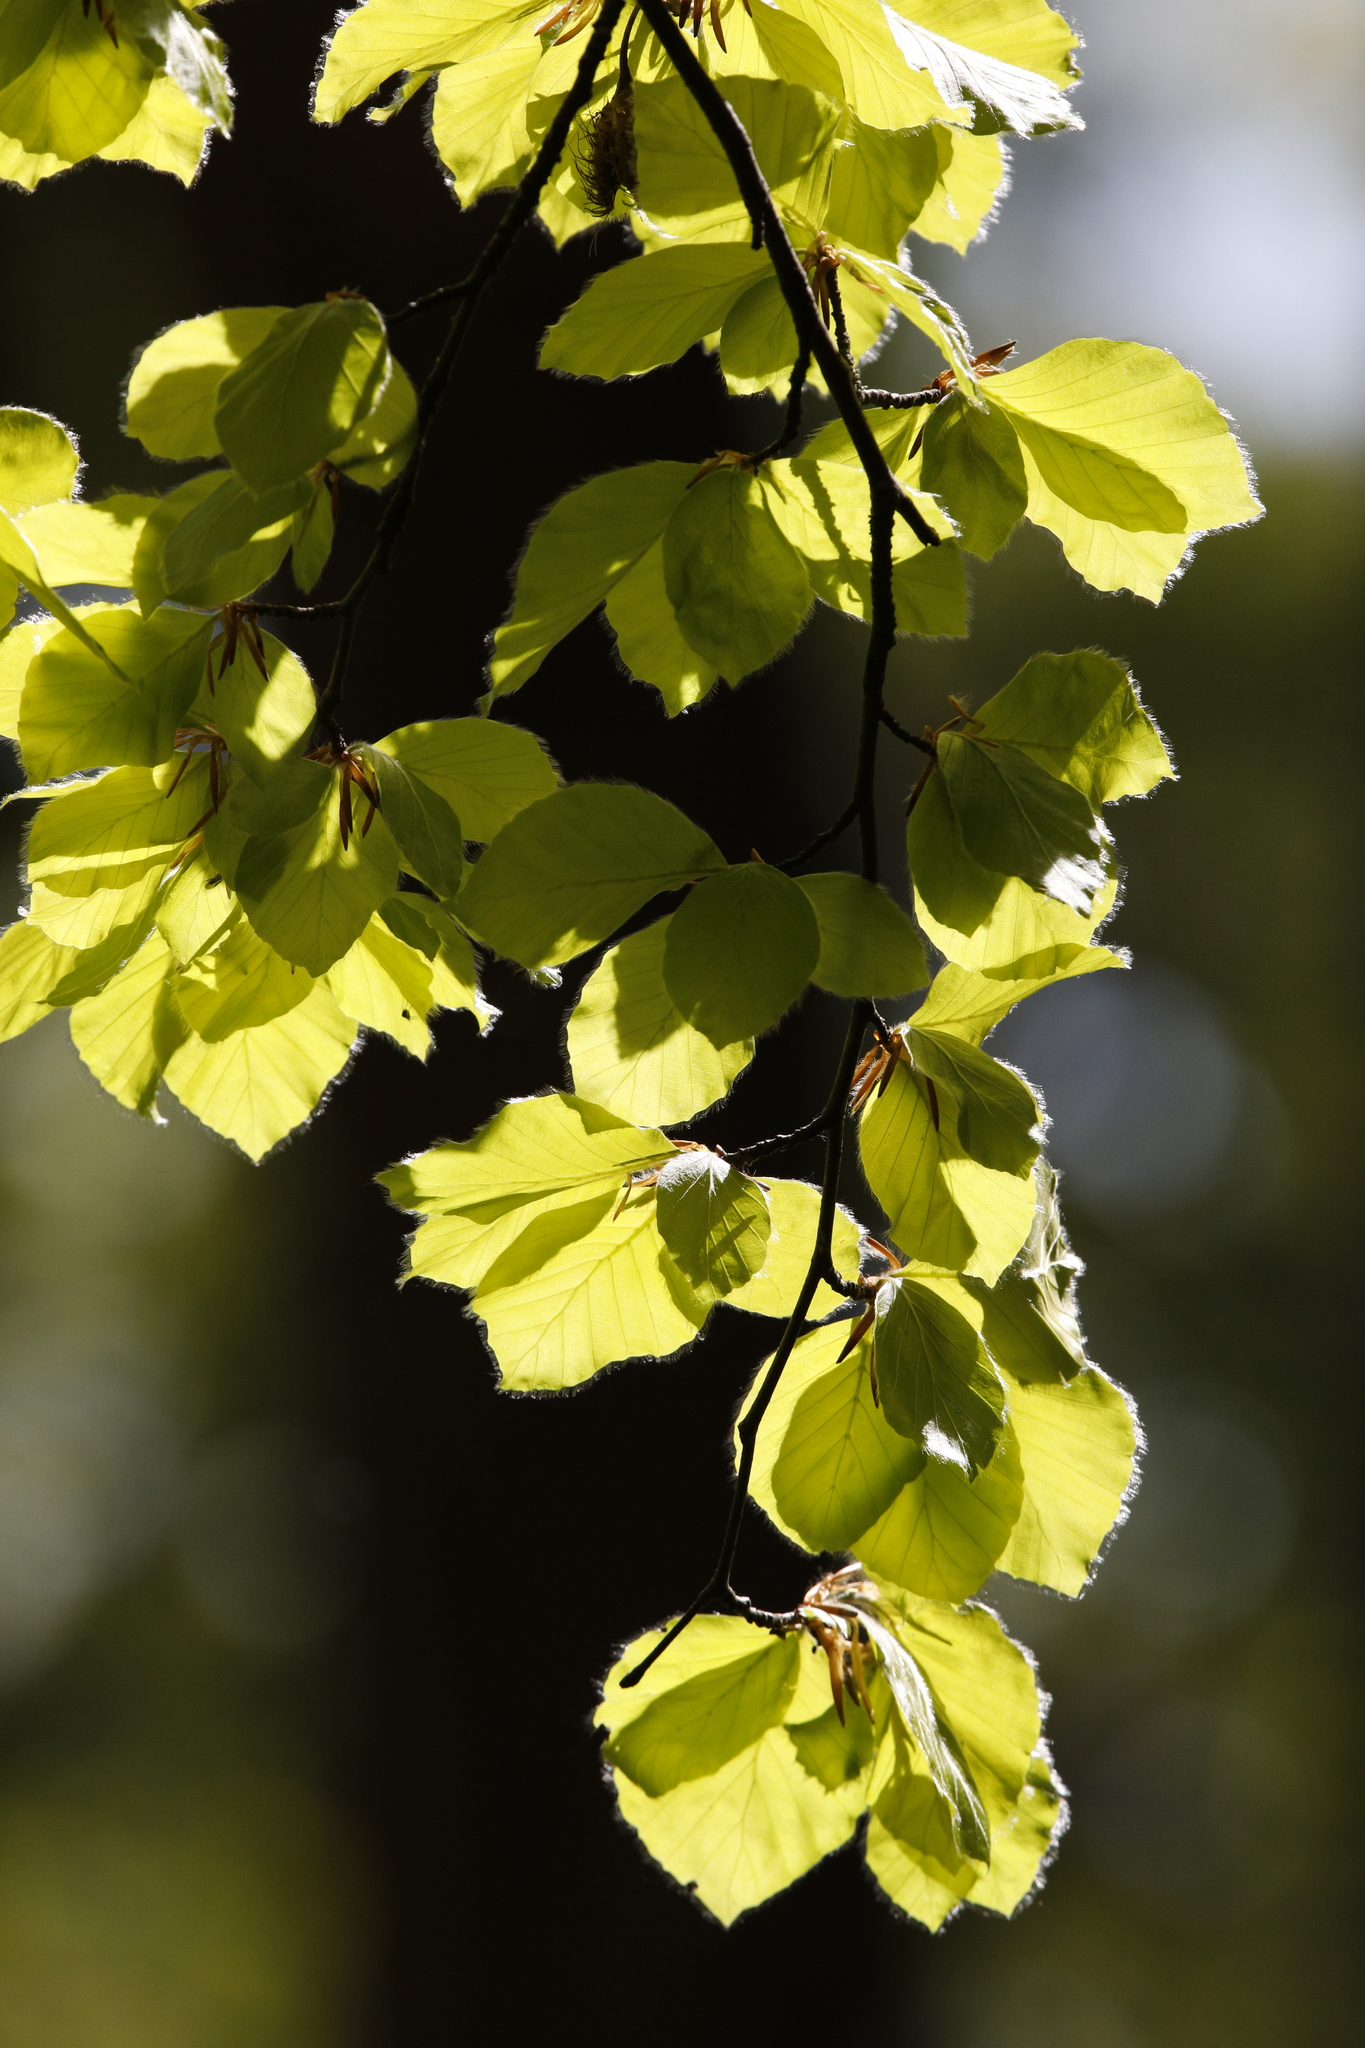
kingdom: Plantae
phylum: Tracheophyta
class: Magnoliopsida
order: Fagales
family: Fagaceae
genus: Fagus
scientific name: Fagus sylvatica
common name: Beech
